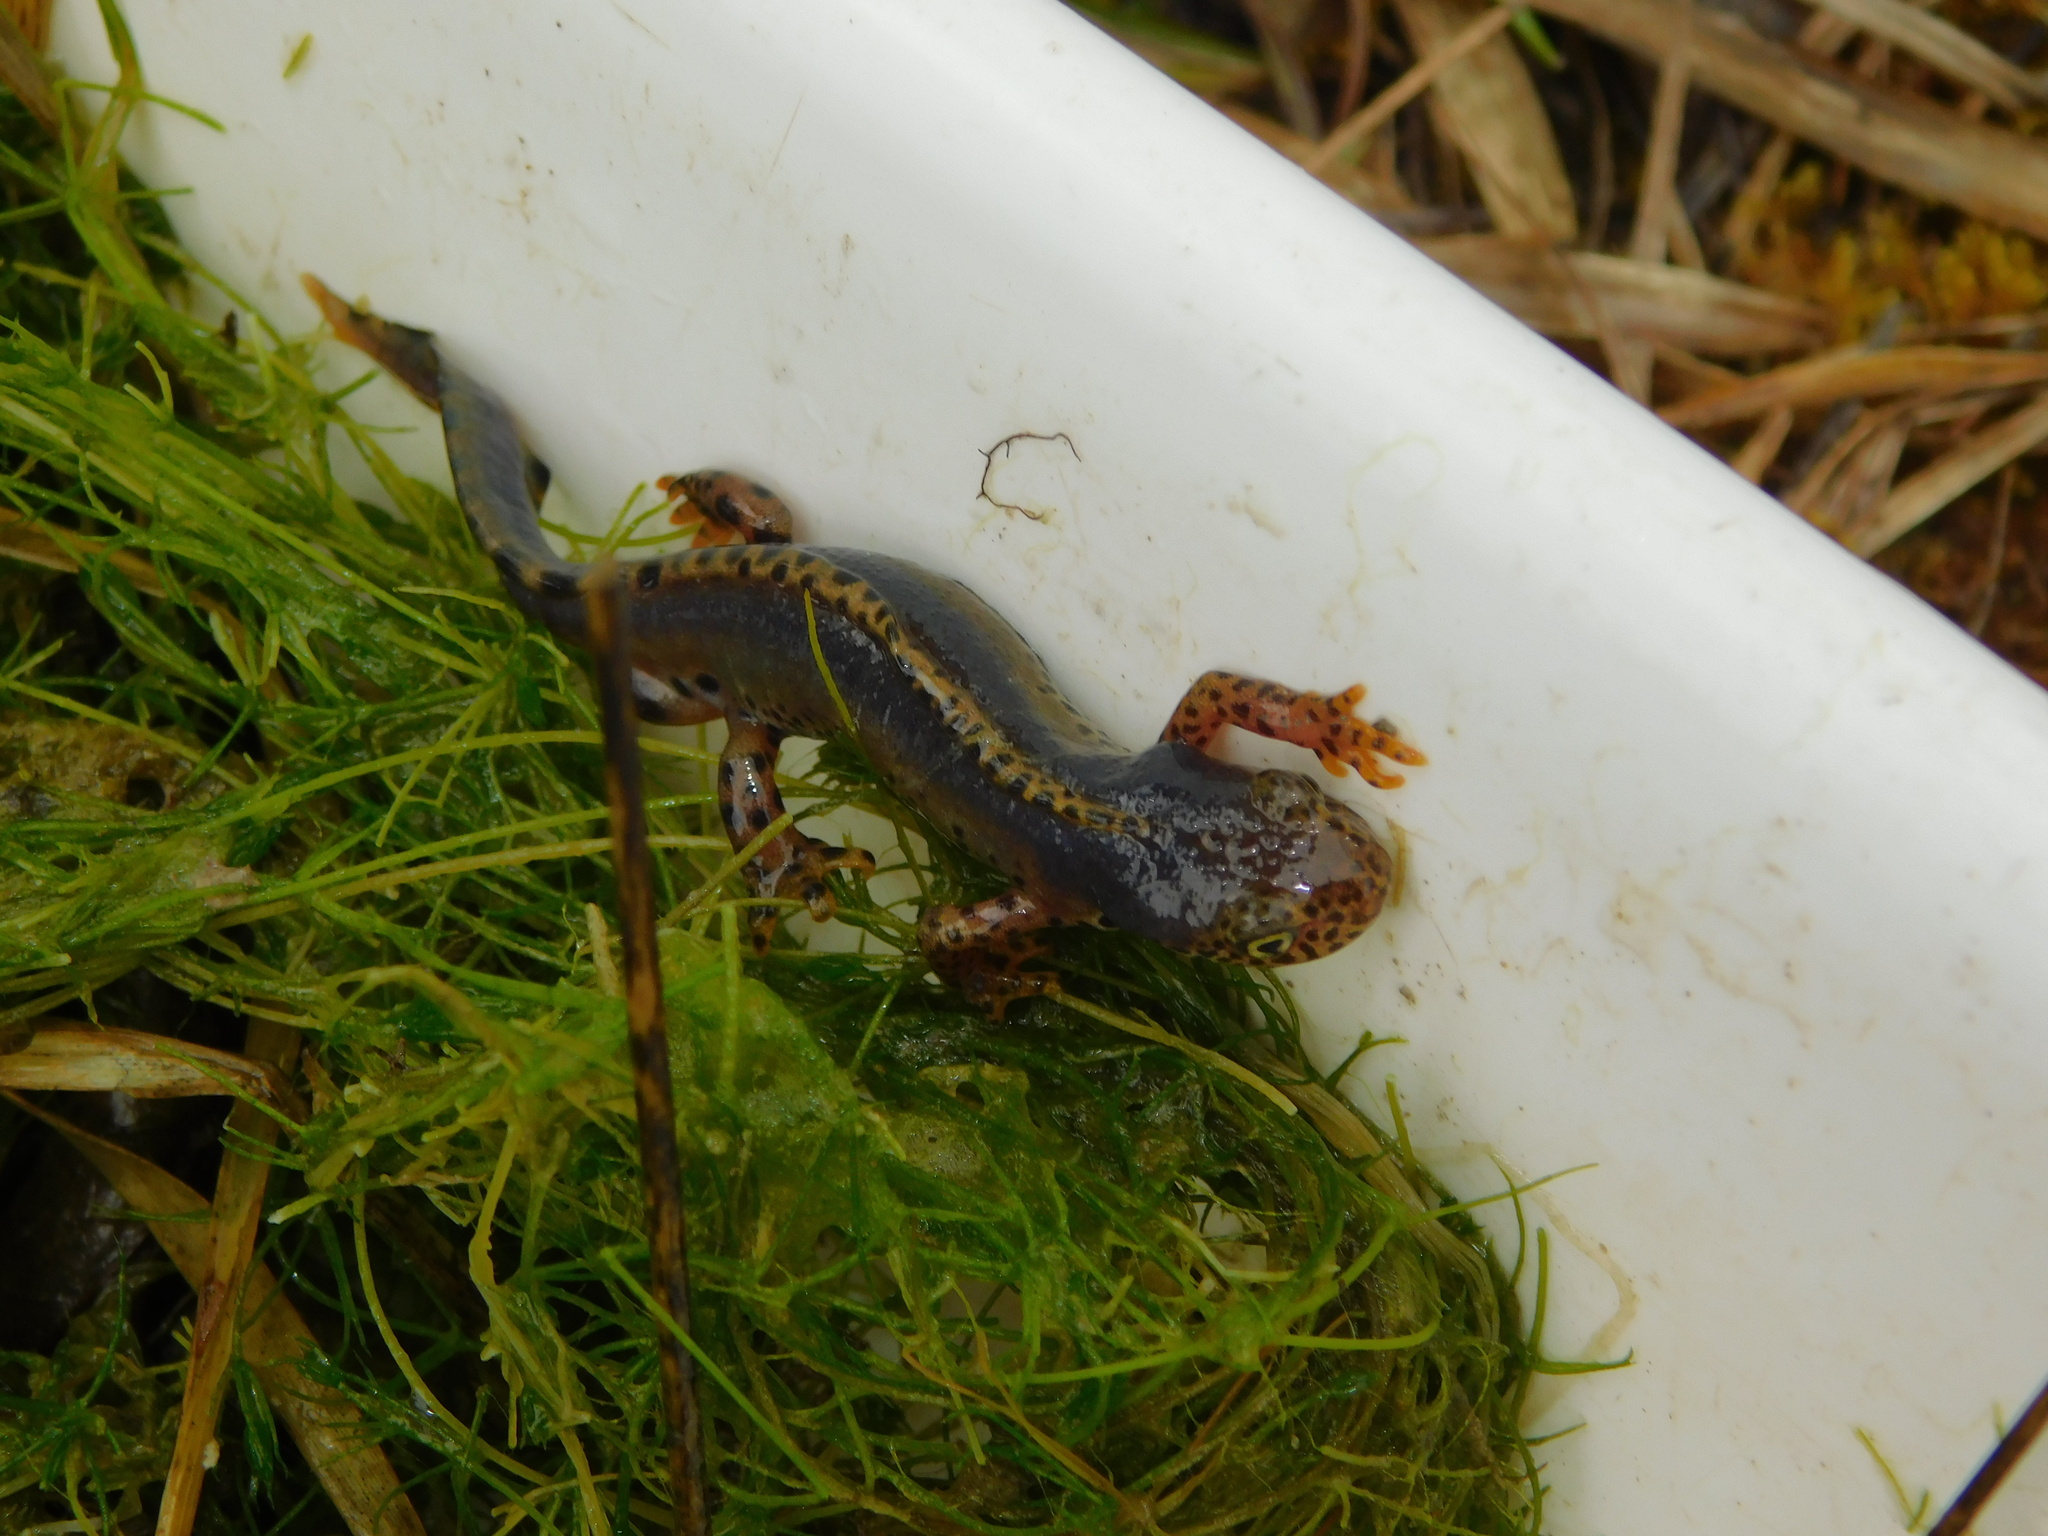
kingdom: Animalia
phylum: Chordata
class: Amphibia
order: Caudata
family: Salamandridae
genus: Ichthyosaura
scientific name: Ichthyosaura alpestris
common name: Alpine newt
